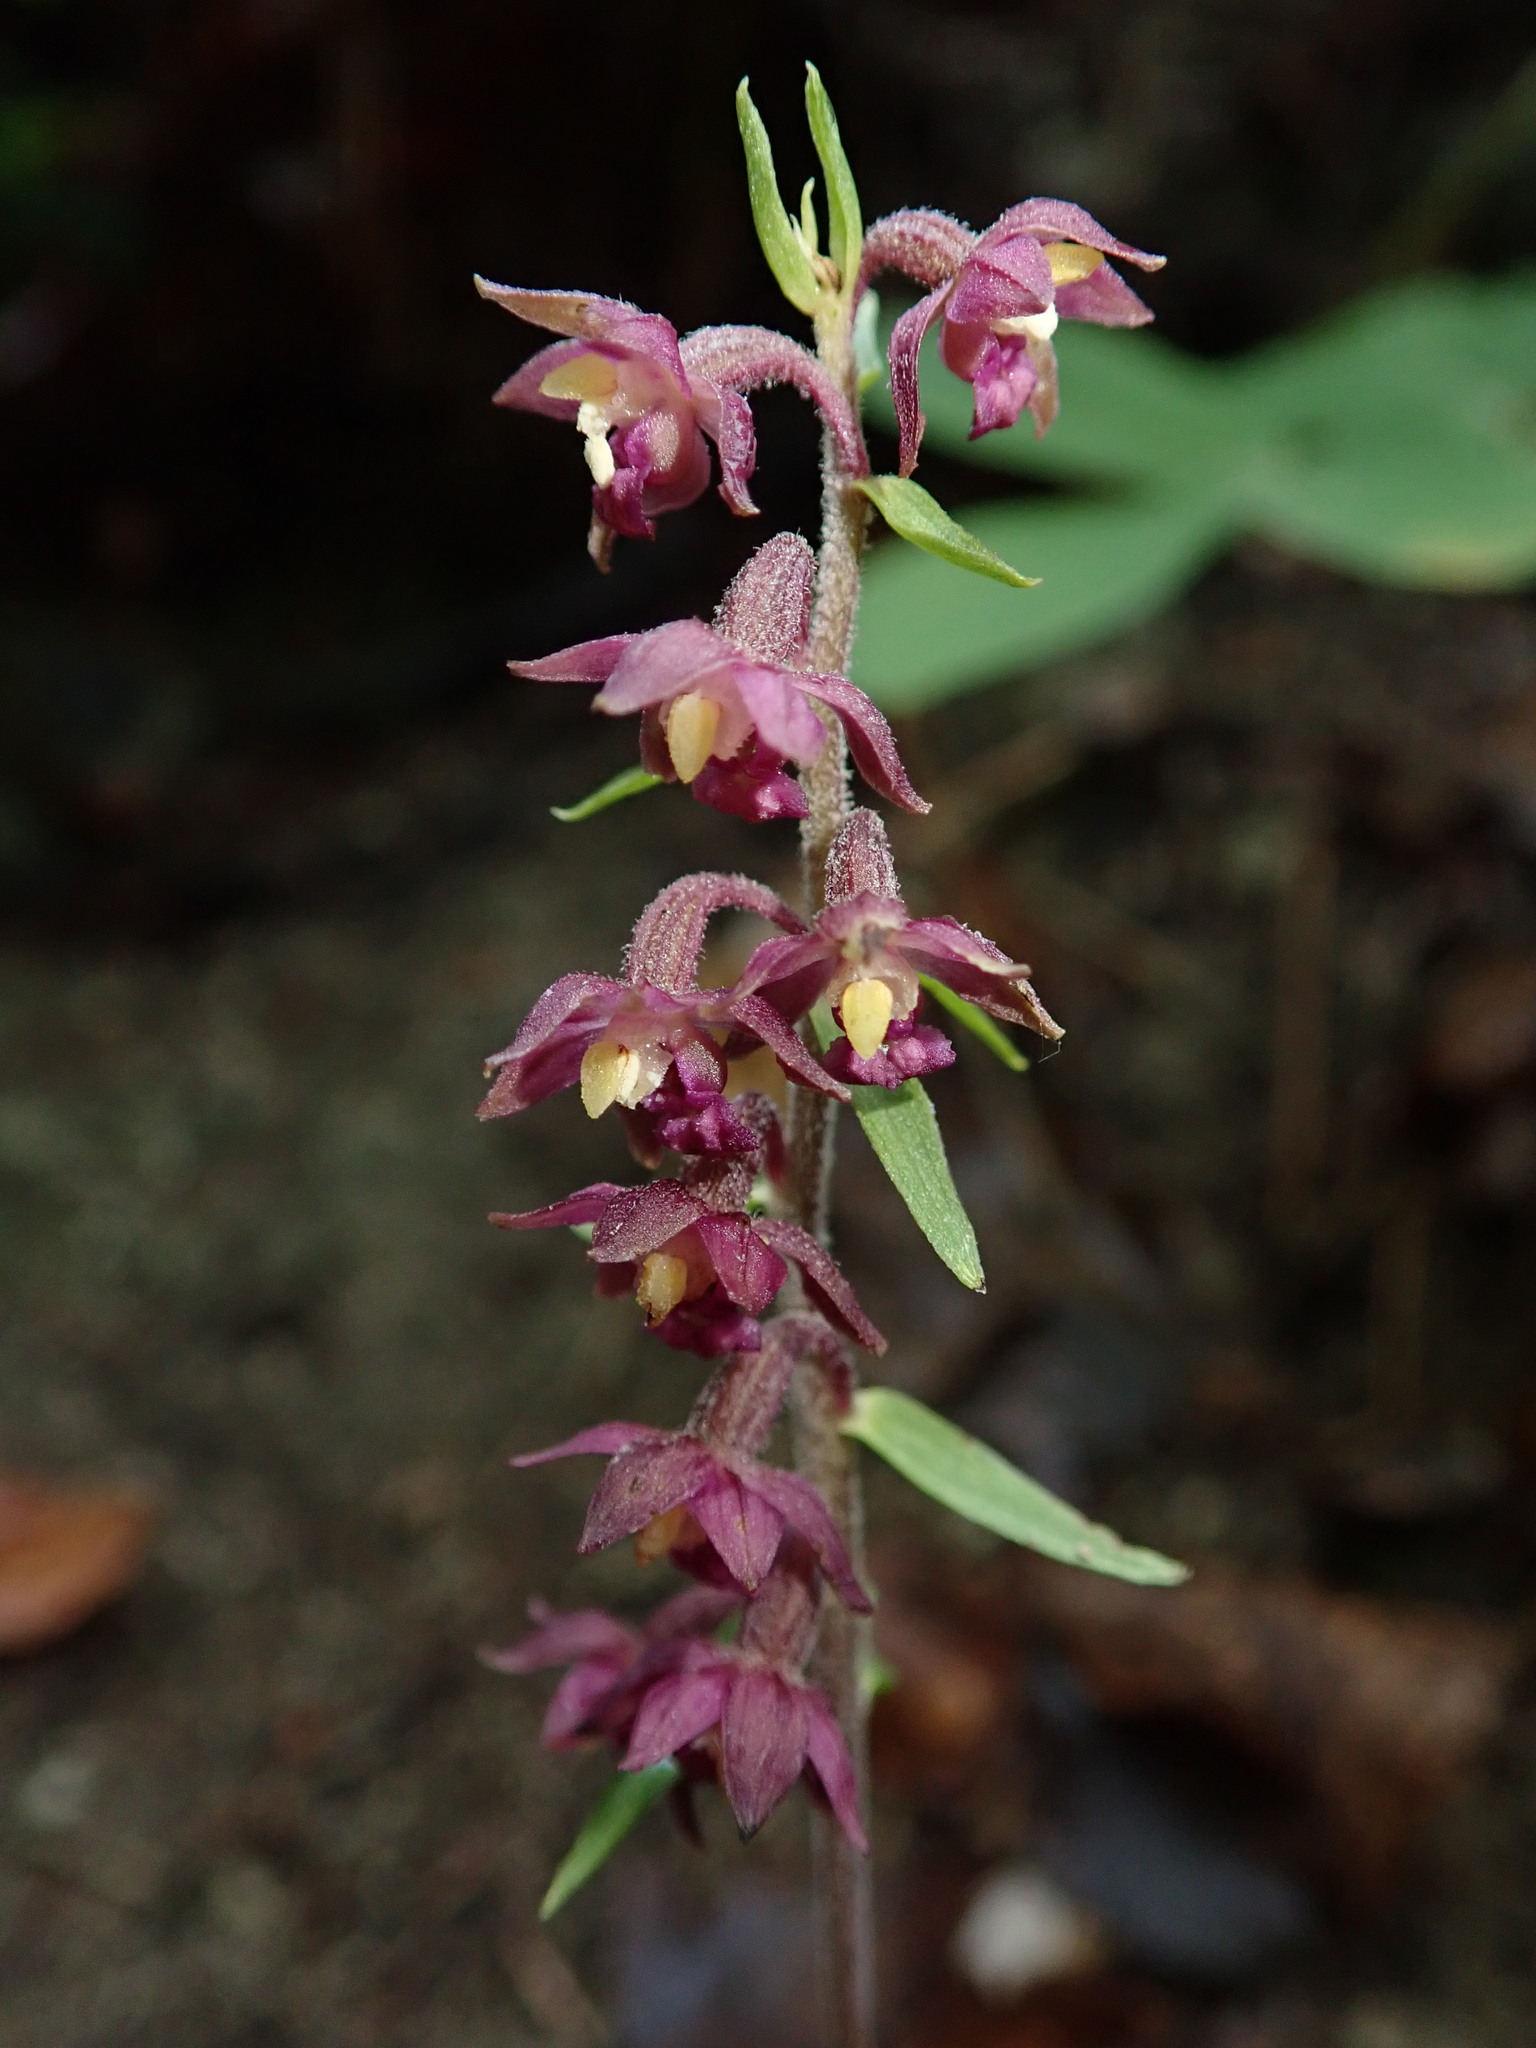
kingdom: Plantae
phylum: Tracheophyta
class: Liliopsida
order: Asparagales
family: Orchidaceae
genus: Epipactis
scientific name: Epipactis atrorubens
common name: Dark-red helleborine
